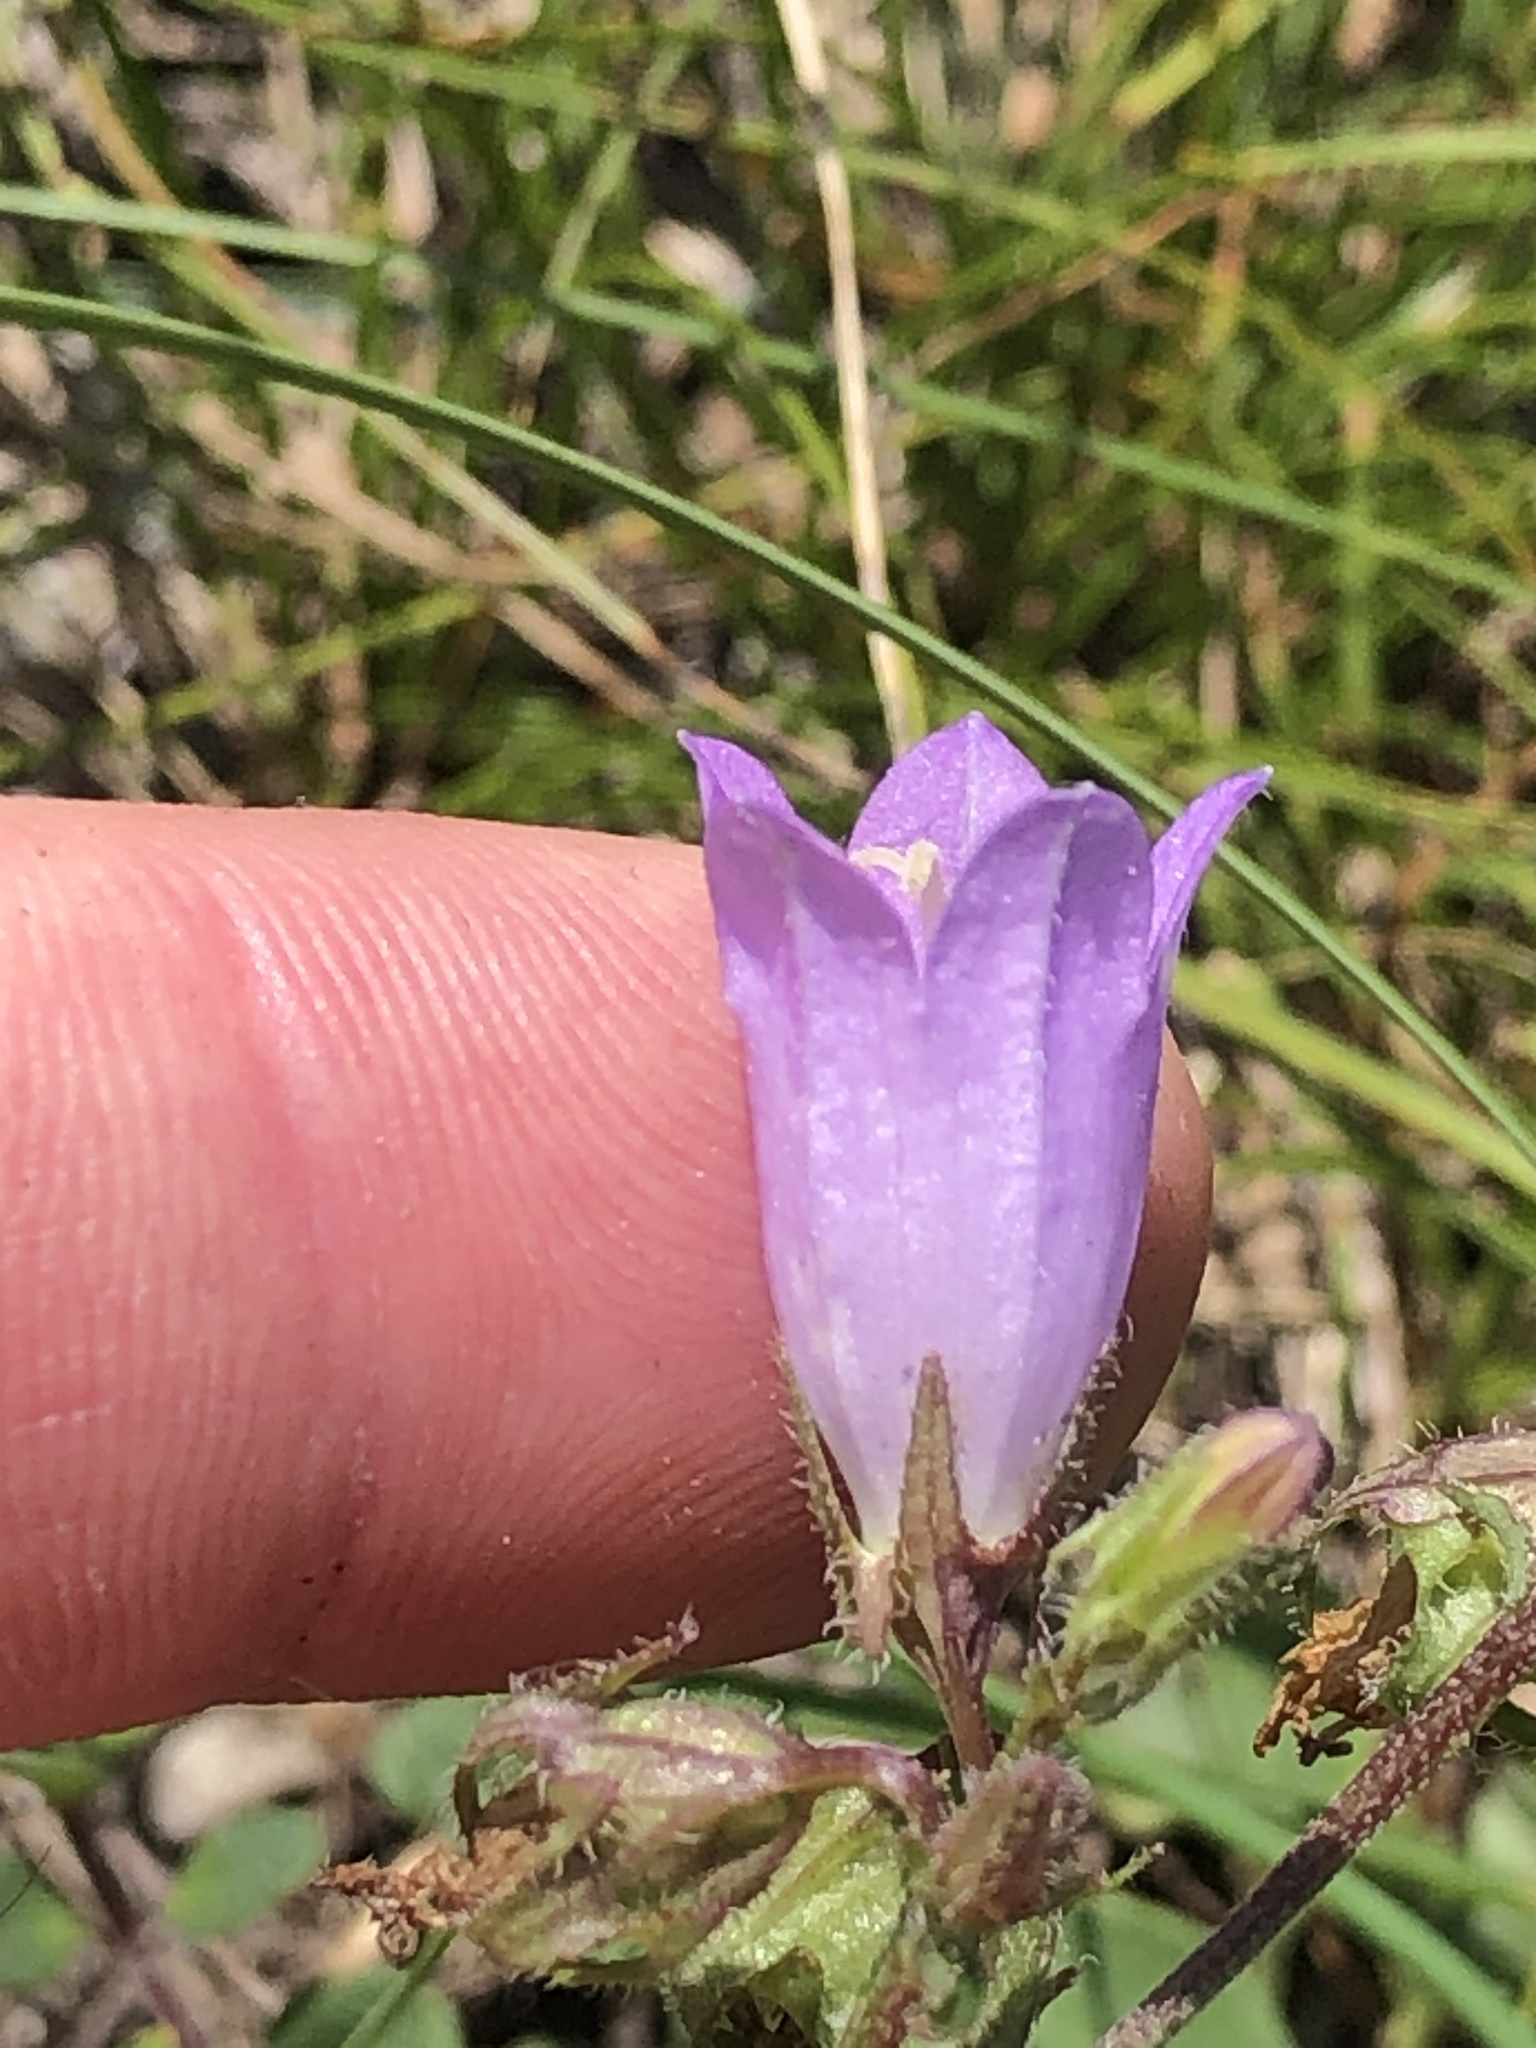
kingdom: Plantae
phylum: Tracheophyta
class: Magnoliopsida
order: Asterales
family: Campanulaceae
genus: Campanula
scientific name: Campanula sibirica
